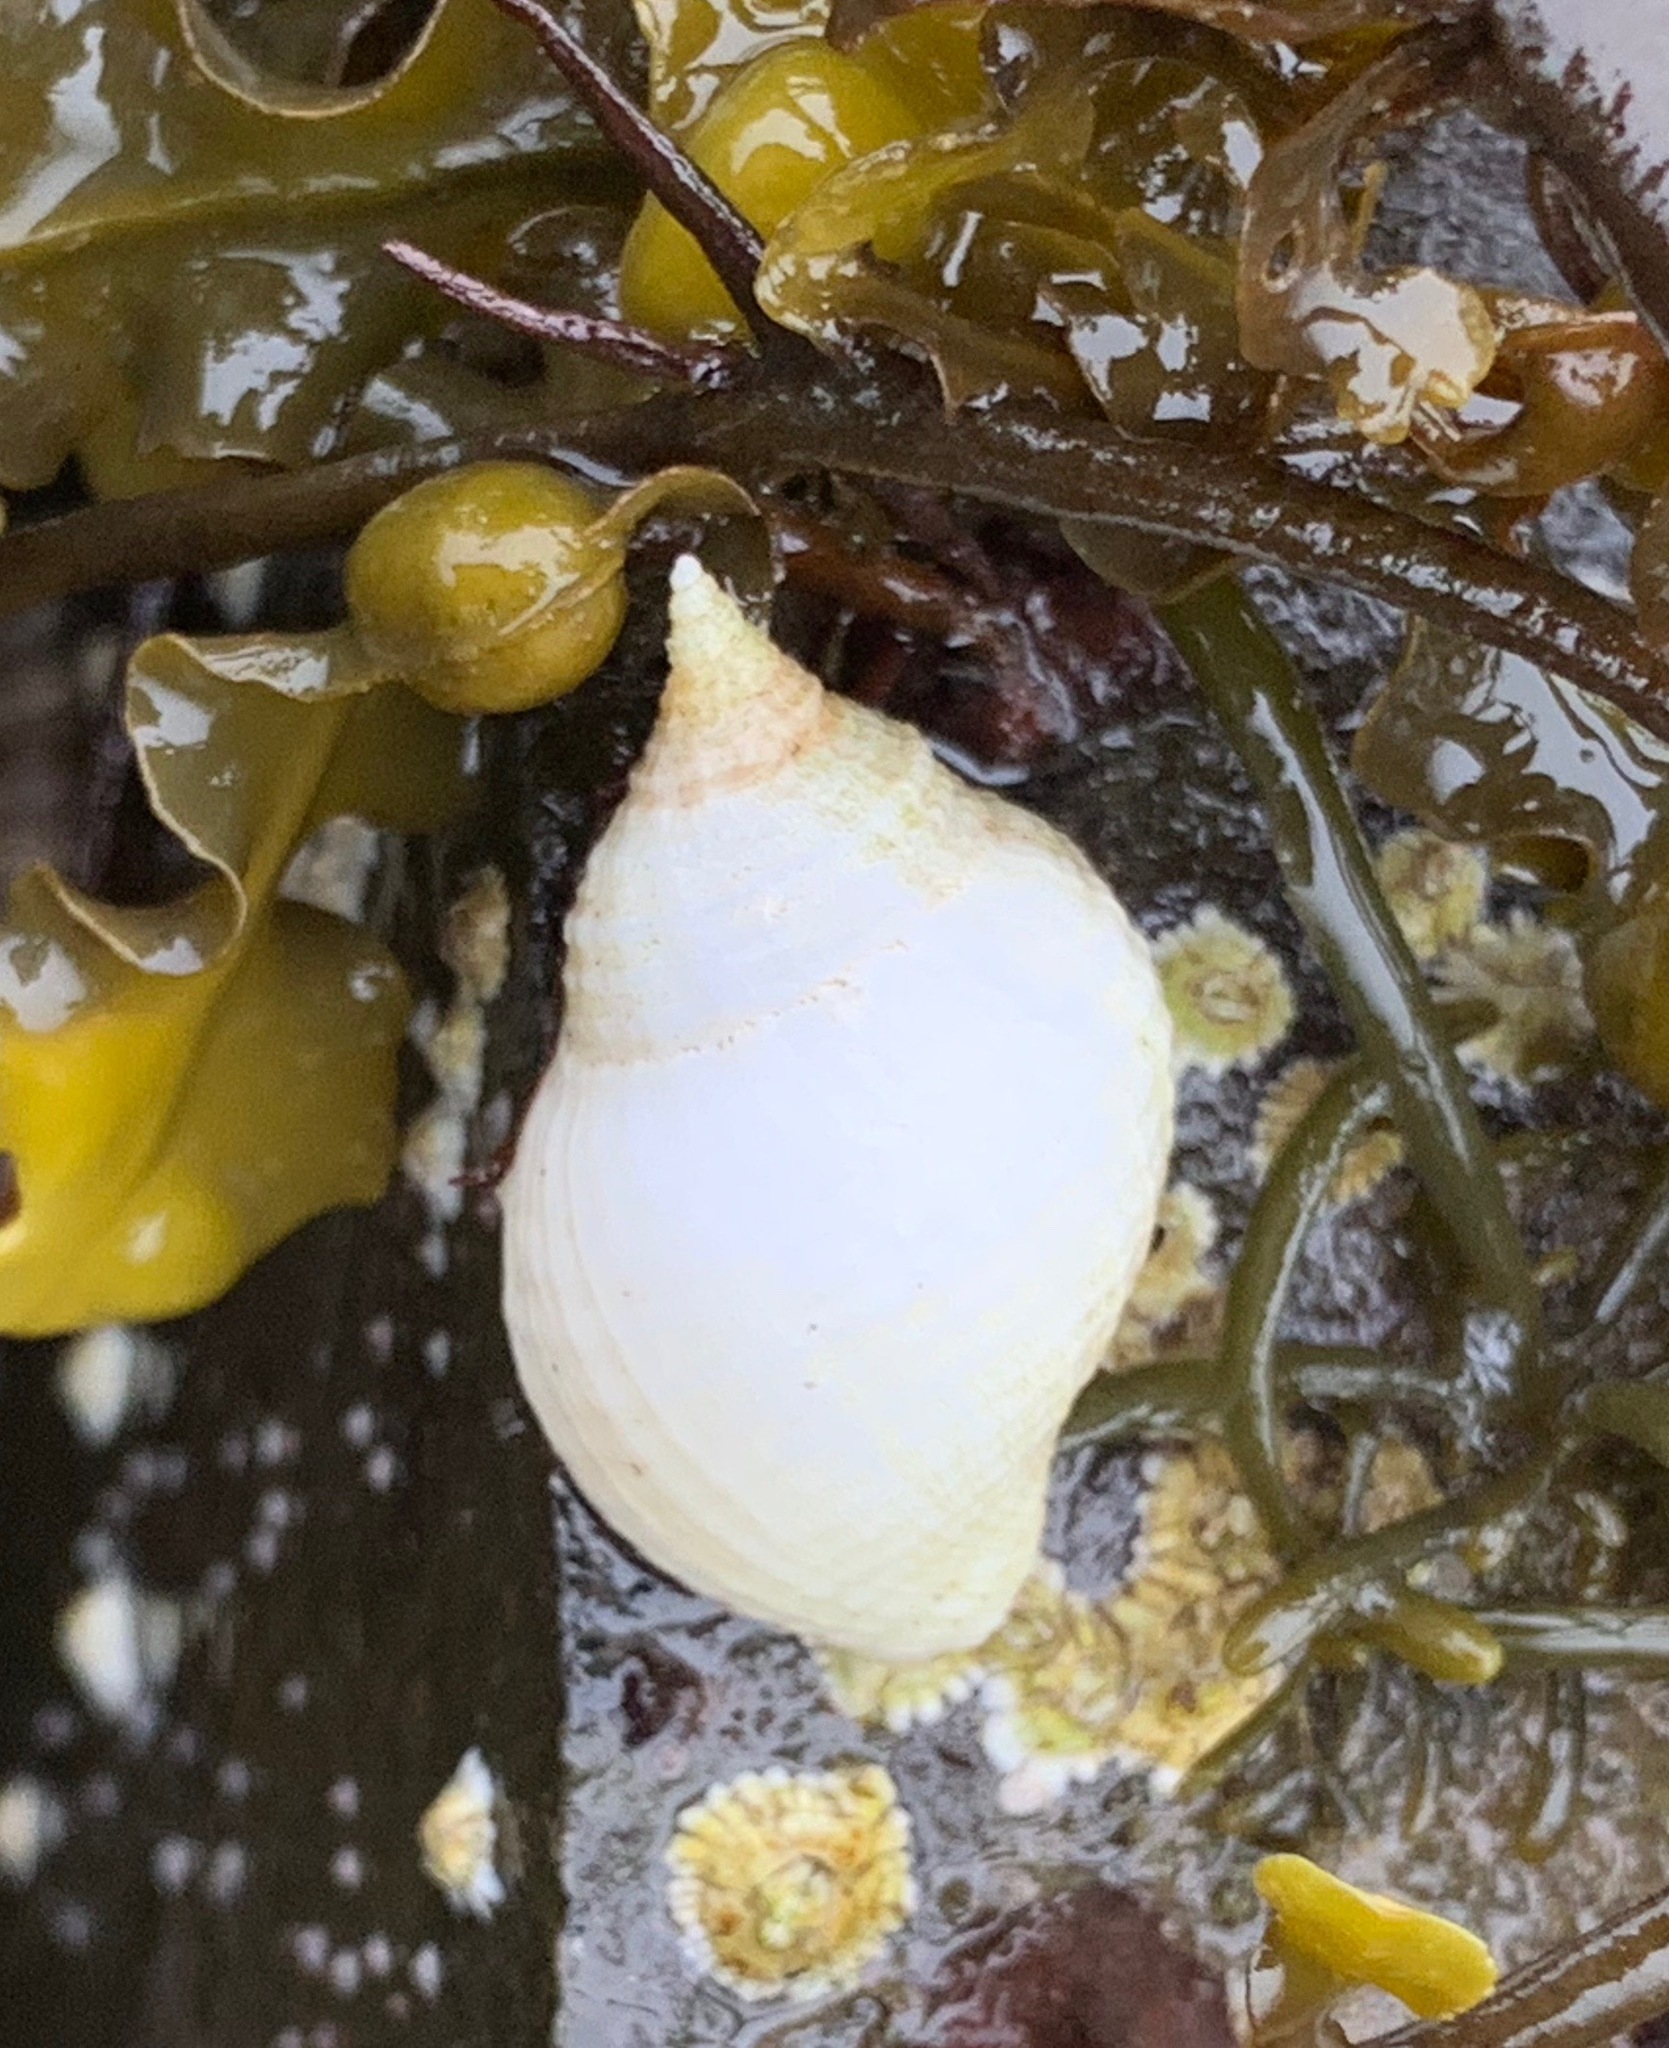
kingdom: Animalia
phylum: Mollusca
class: Gastropoda
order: Neogastropoda
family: Muricidae
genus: Nucella
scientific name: Nucella lapillus
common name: Dog whelk
